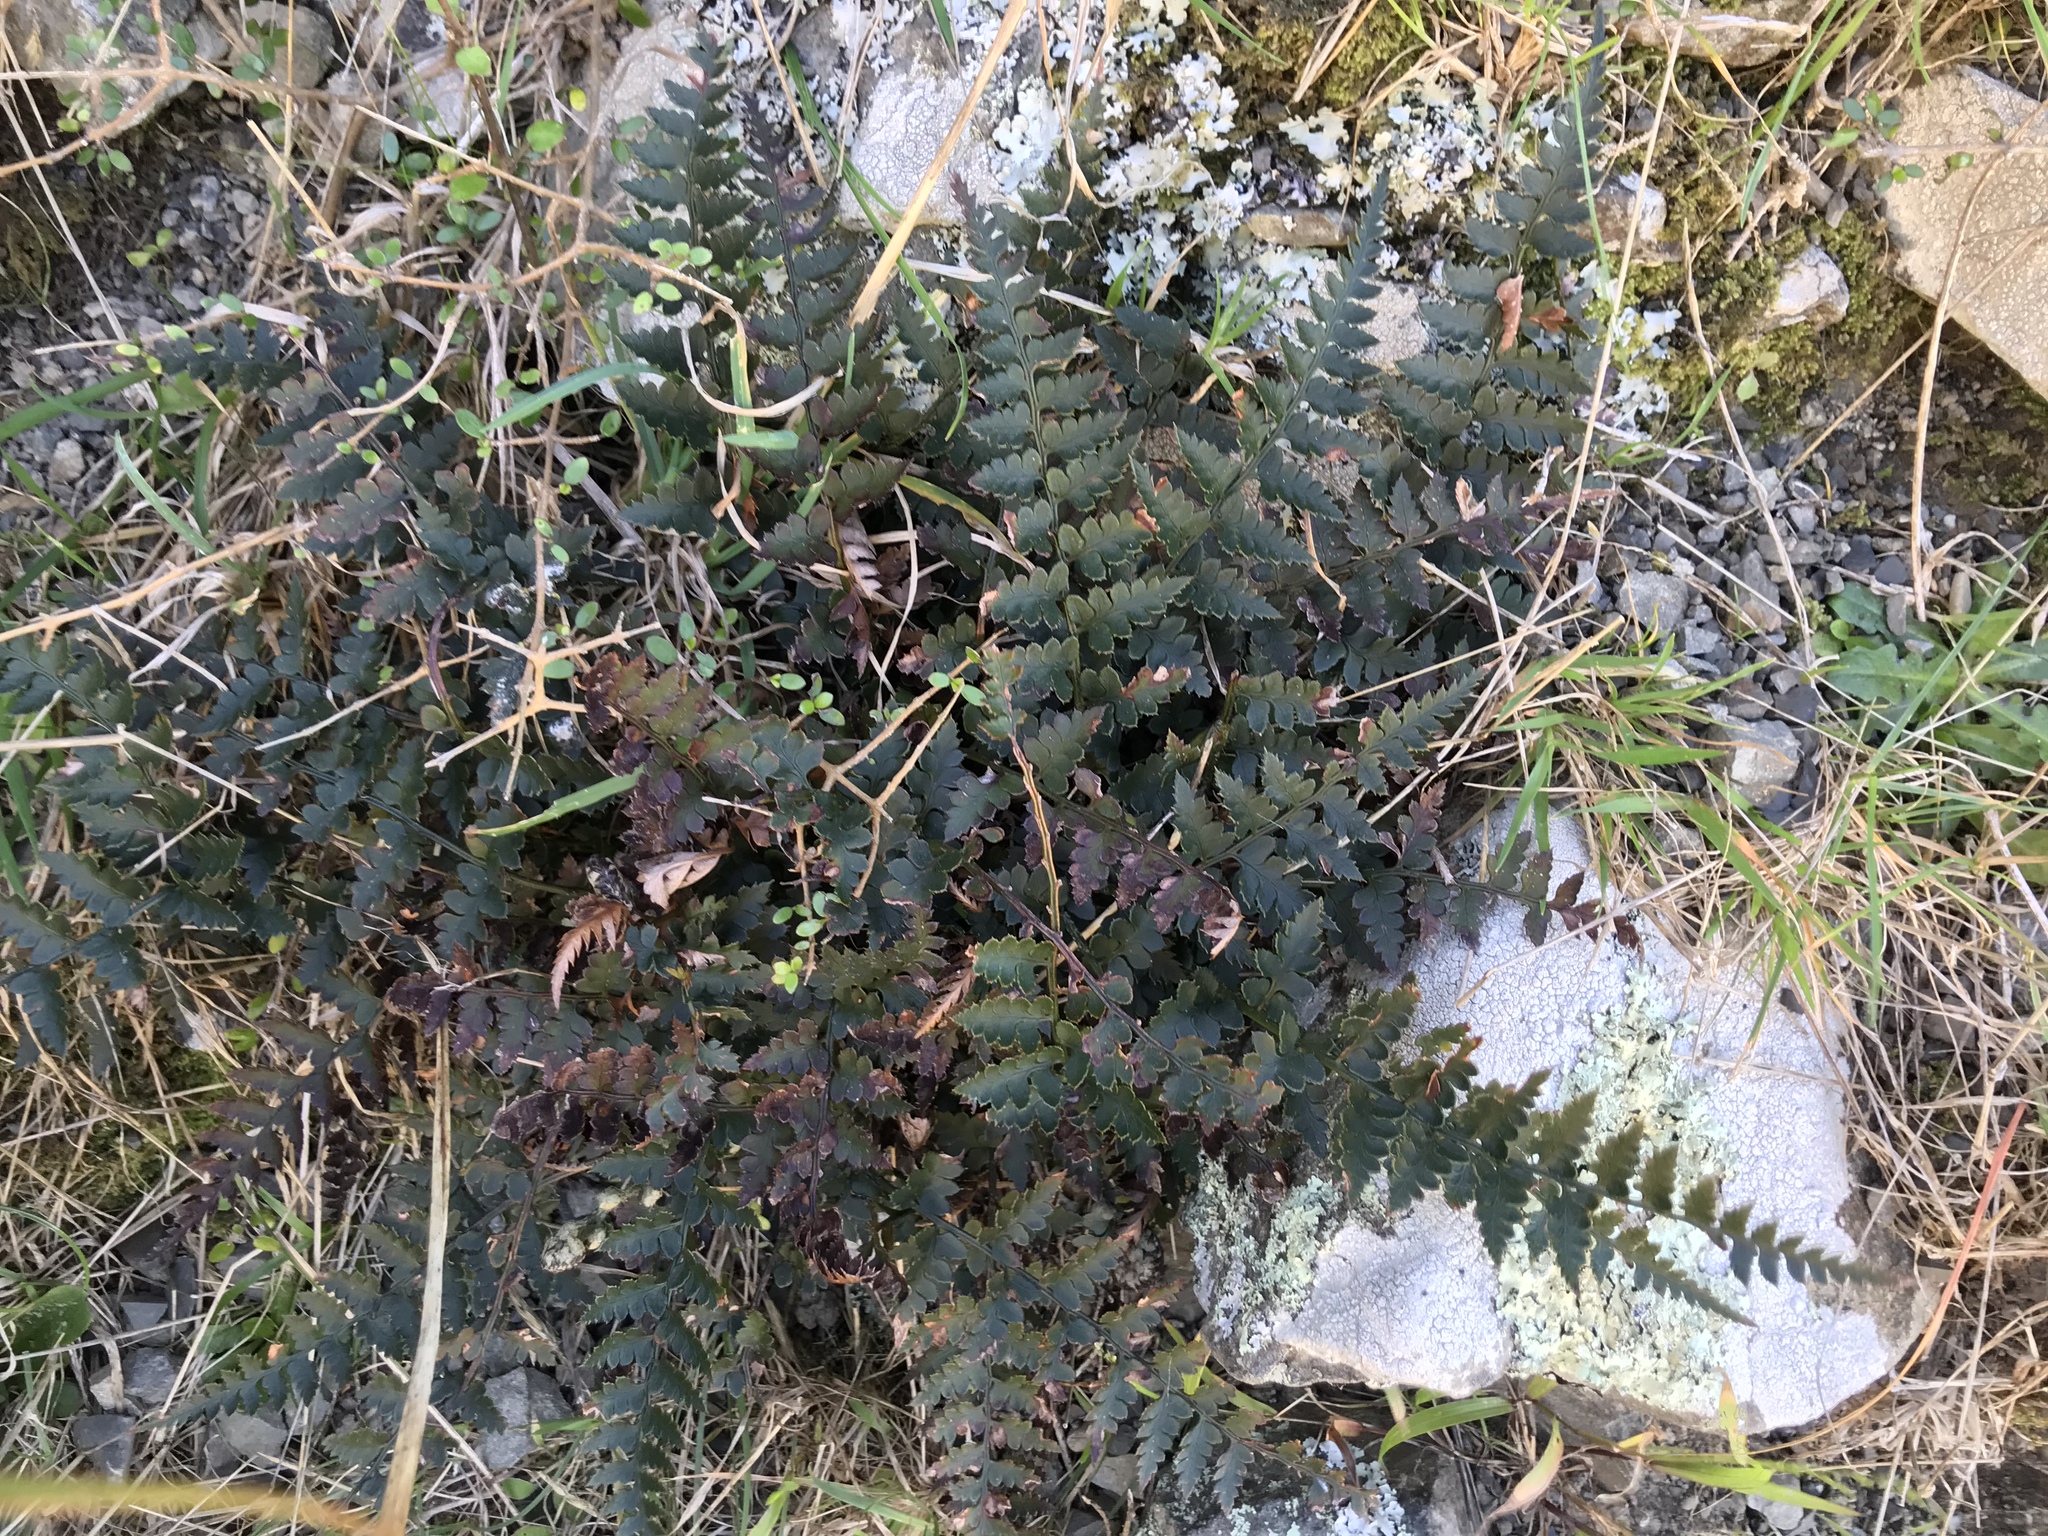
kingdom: Plantae
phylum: Tracheophyta
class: Polypodiopsida
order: Polypodiales
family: Dryopteridaceae
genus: Polystichum
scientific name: Polystichum oculatum
